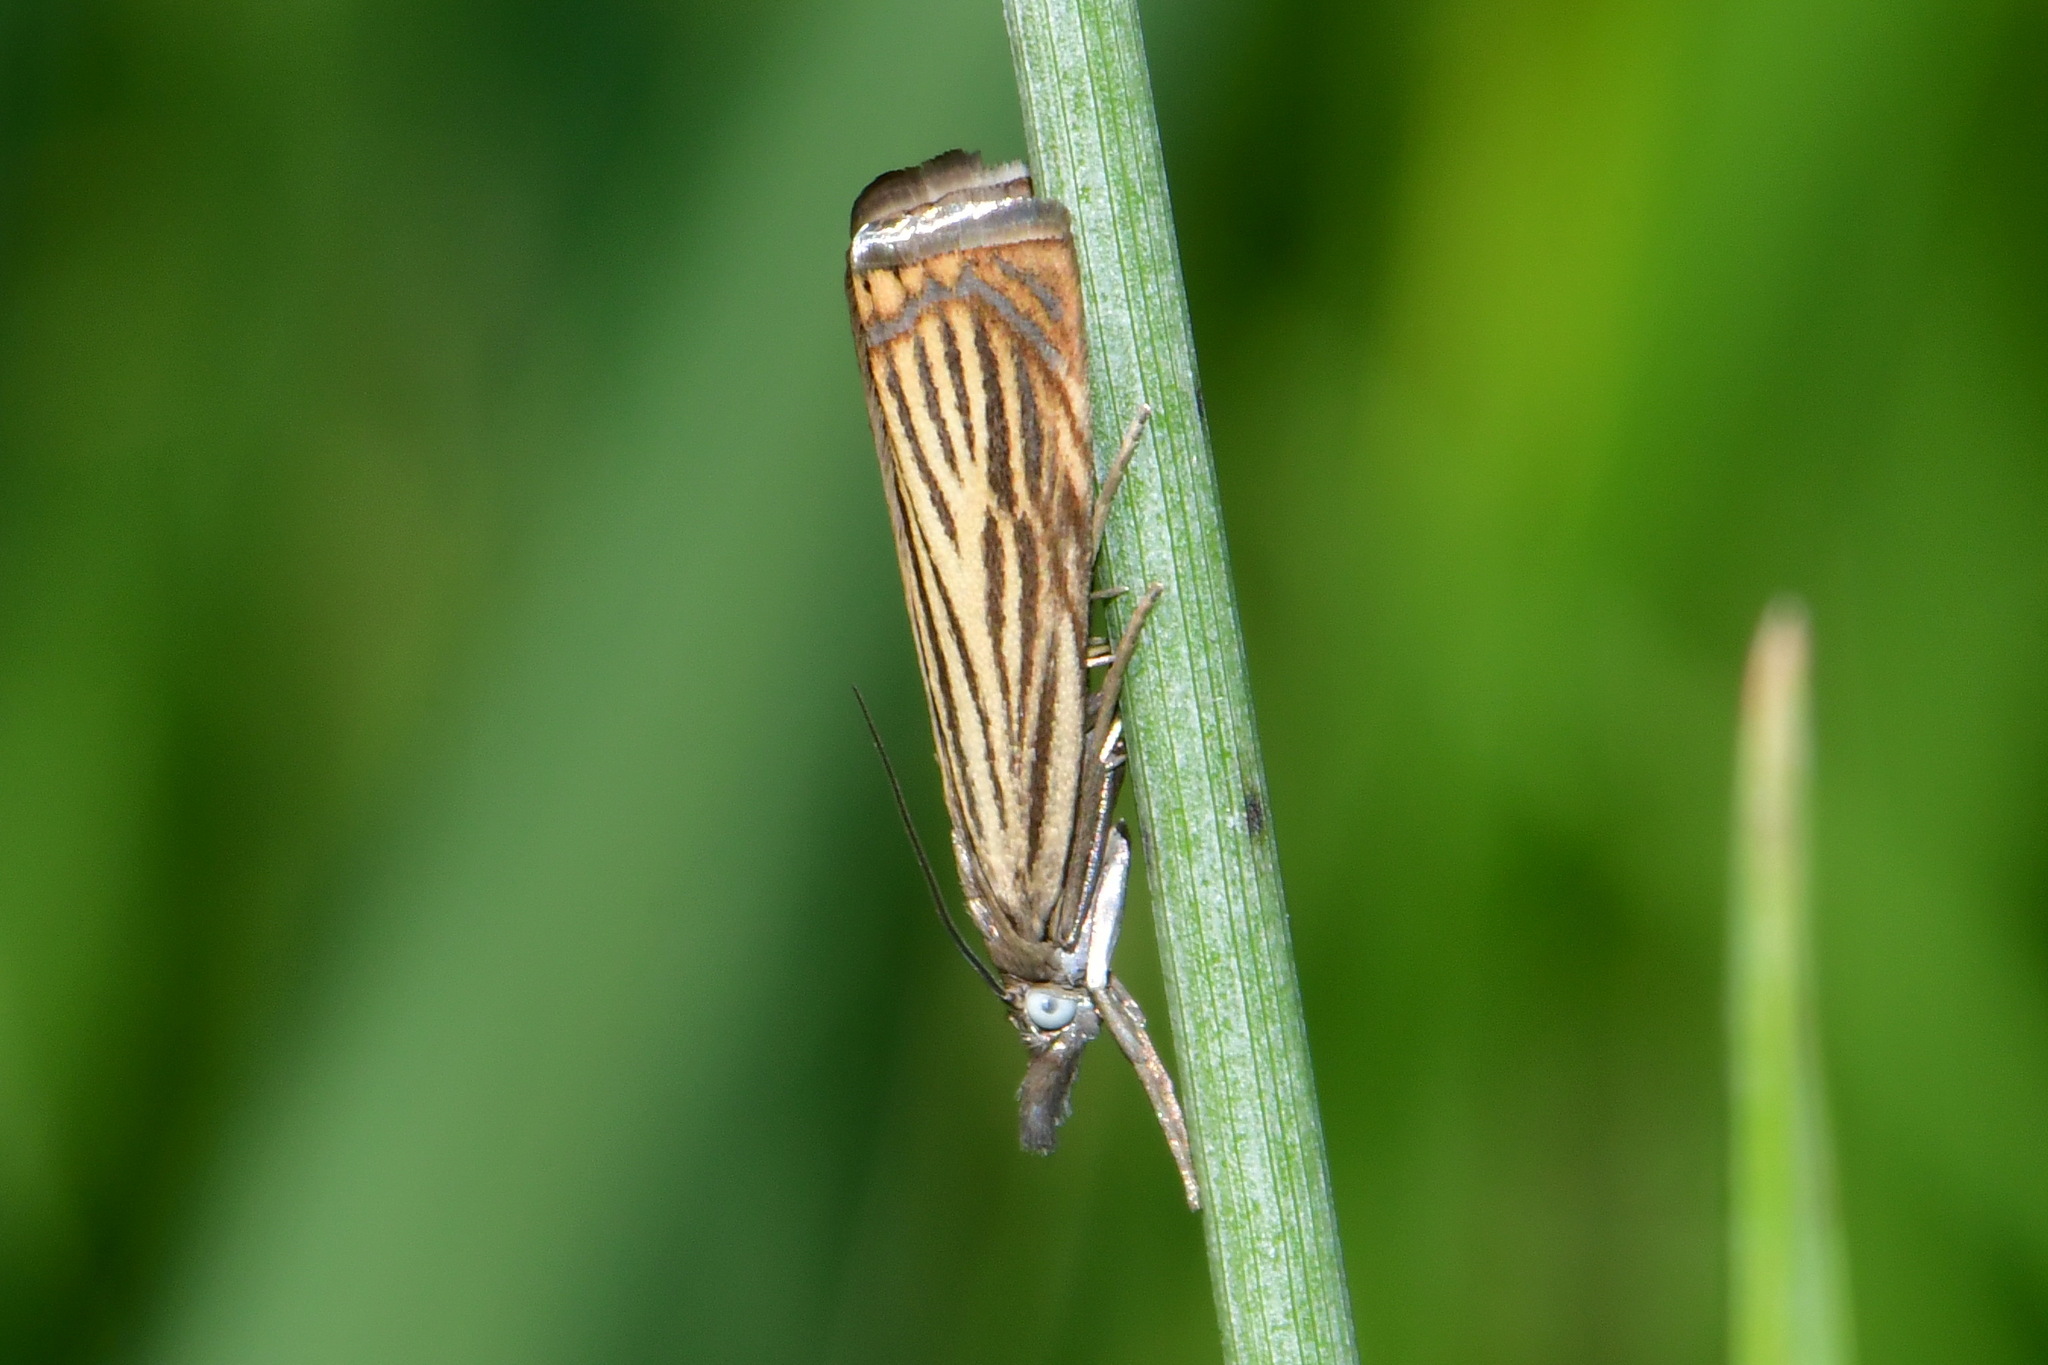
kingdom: Animalia
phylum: Arthropoda
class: Insecta
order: Lepidoptera
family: Crambidae
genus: Chrysoteuchia
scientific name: Chrysoteuchia culmella
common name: Garden grass-veneer
